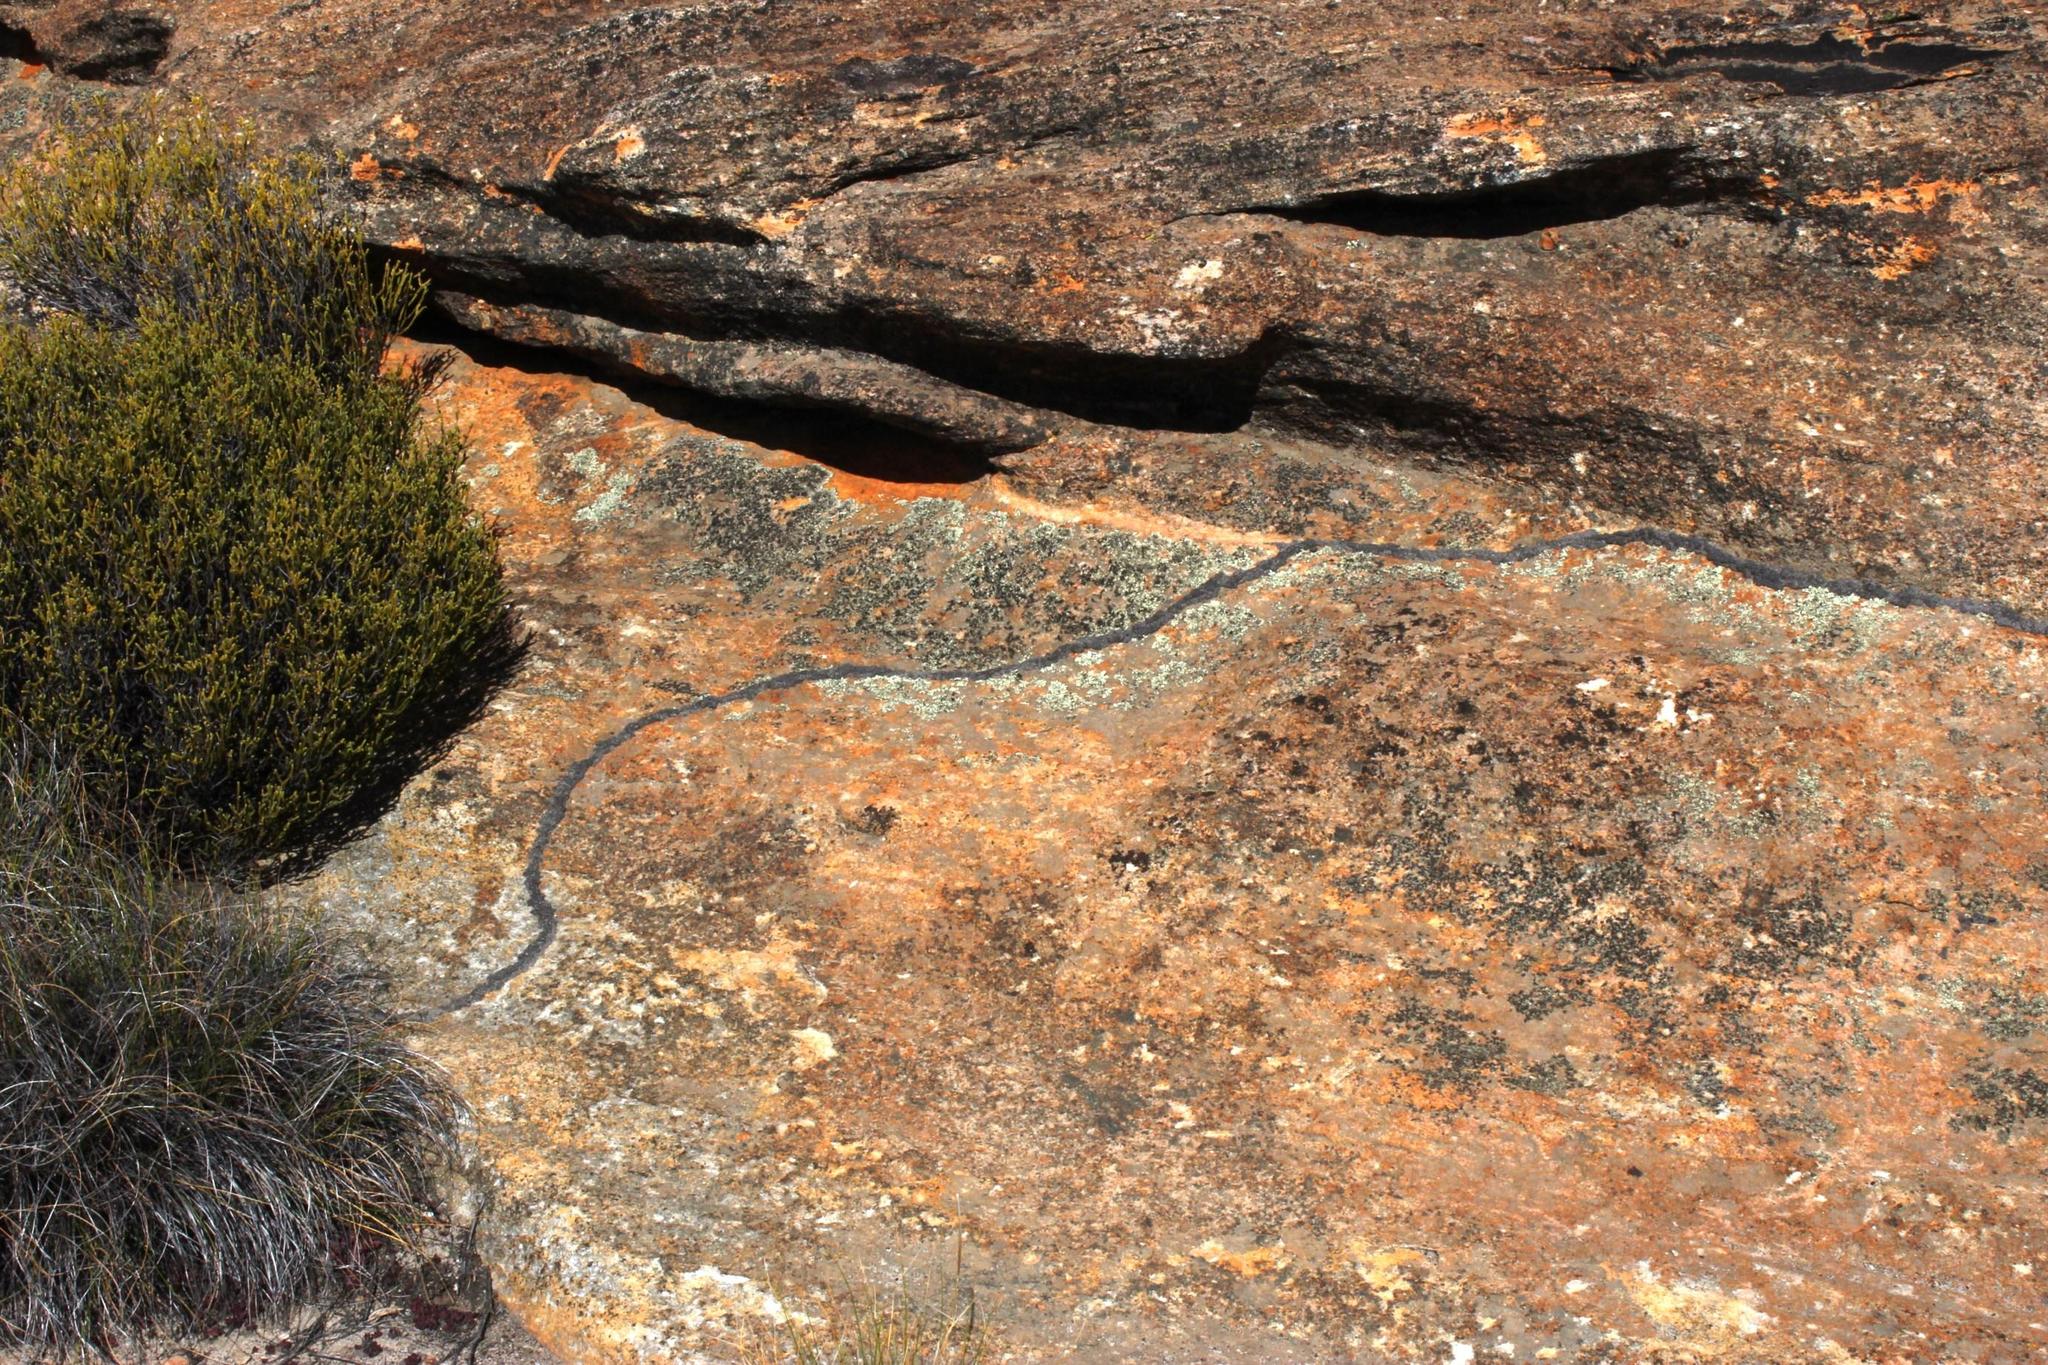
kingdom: Animalia
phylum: Arthropoda
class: Insecta
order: Blattodea
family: Termitidae
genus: Amitermes
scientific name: Amitermes hastatus
